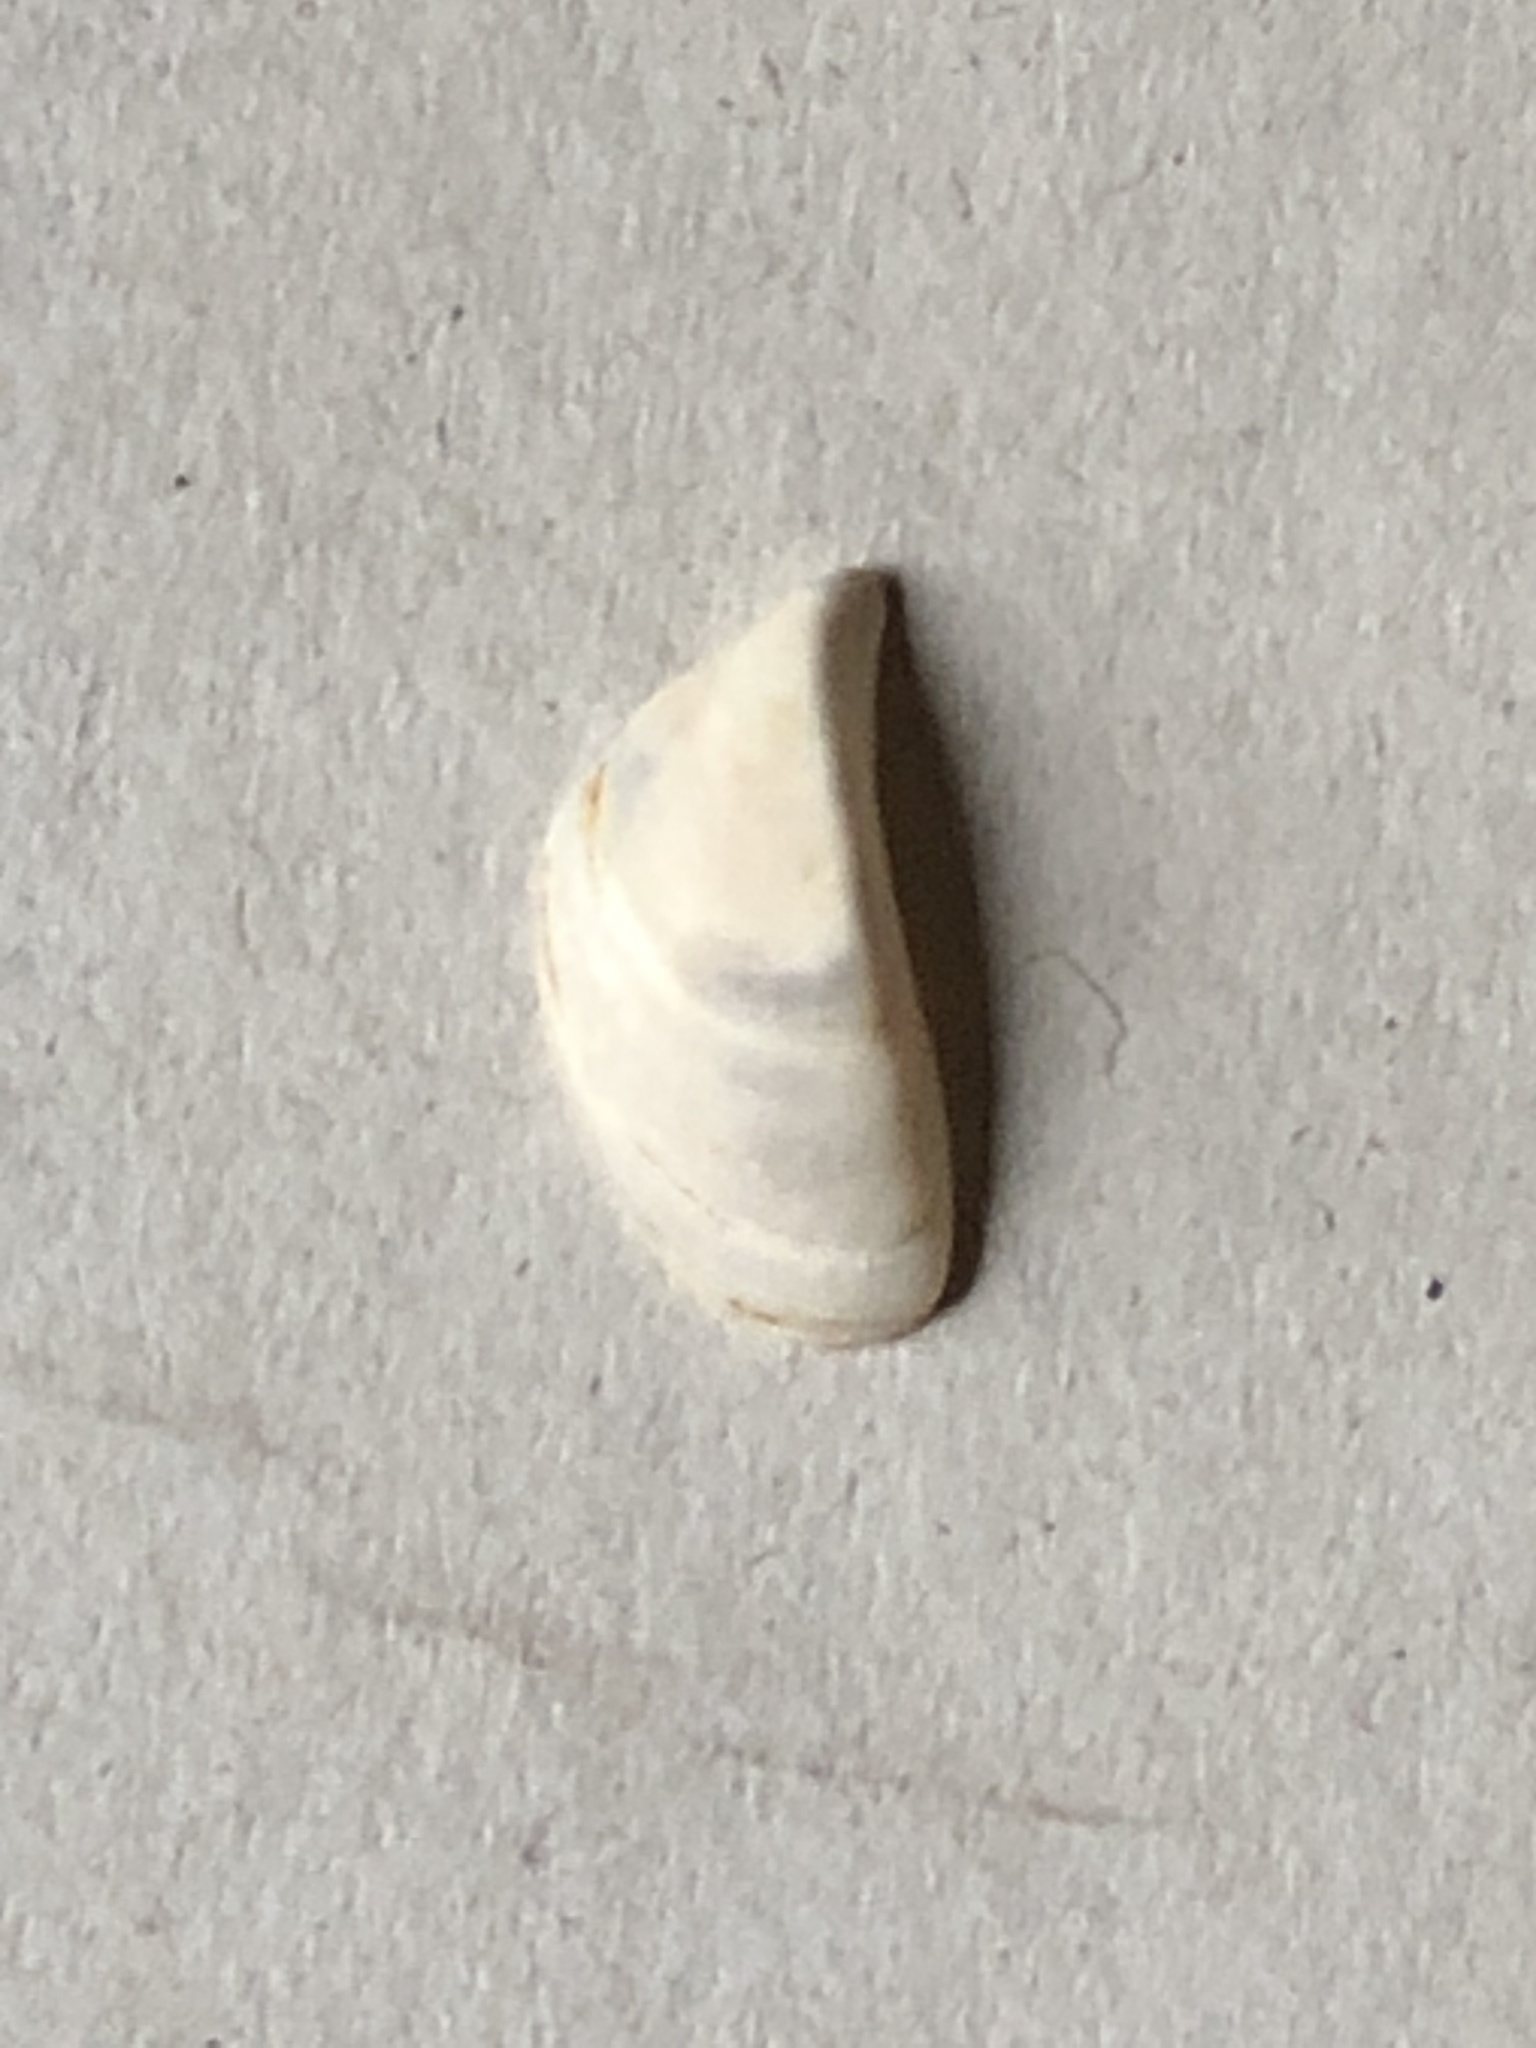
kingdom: Animalia
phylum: Mollusca
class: Bivalvia
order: Myida
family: Dreissenidae
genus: Dreissena
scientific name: Dreissena polymorpha
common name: Zebra mussel
